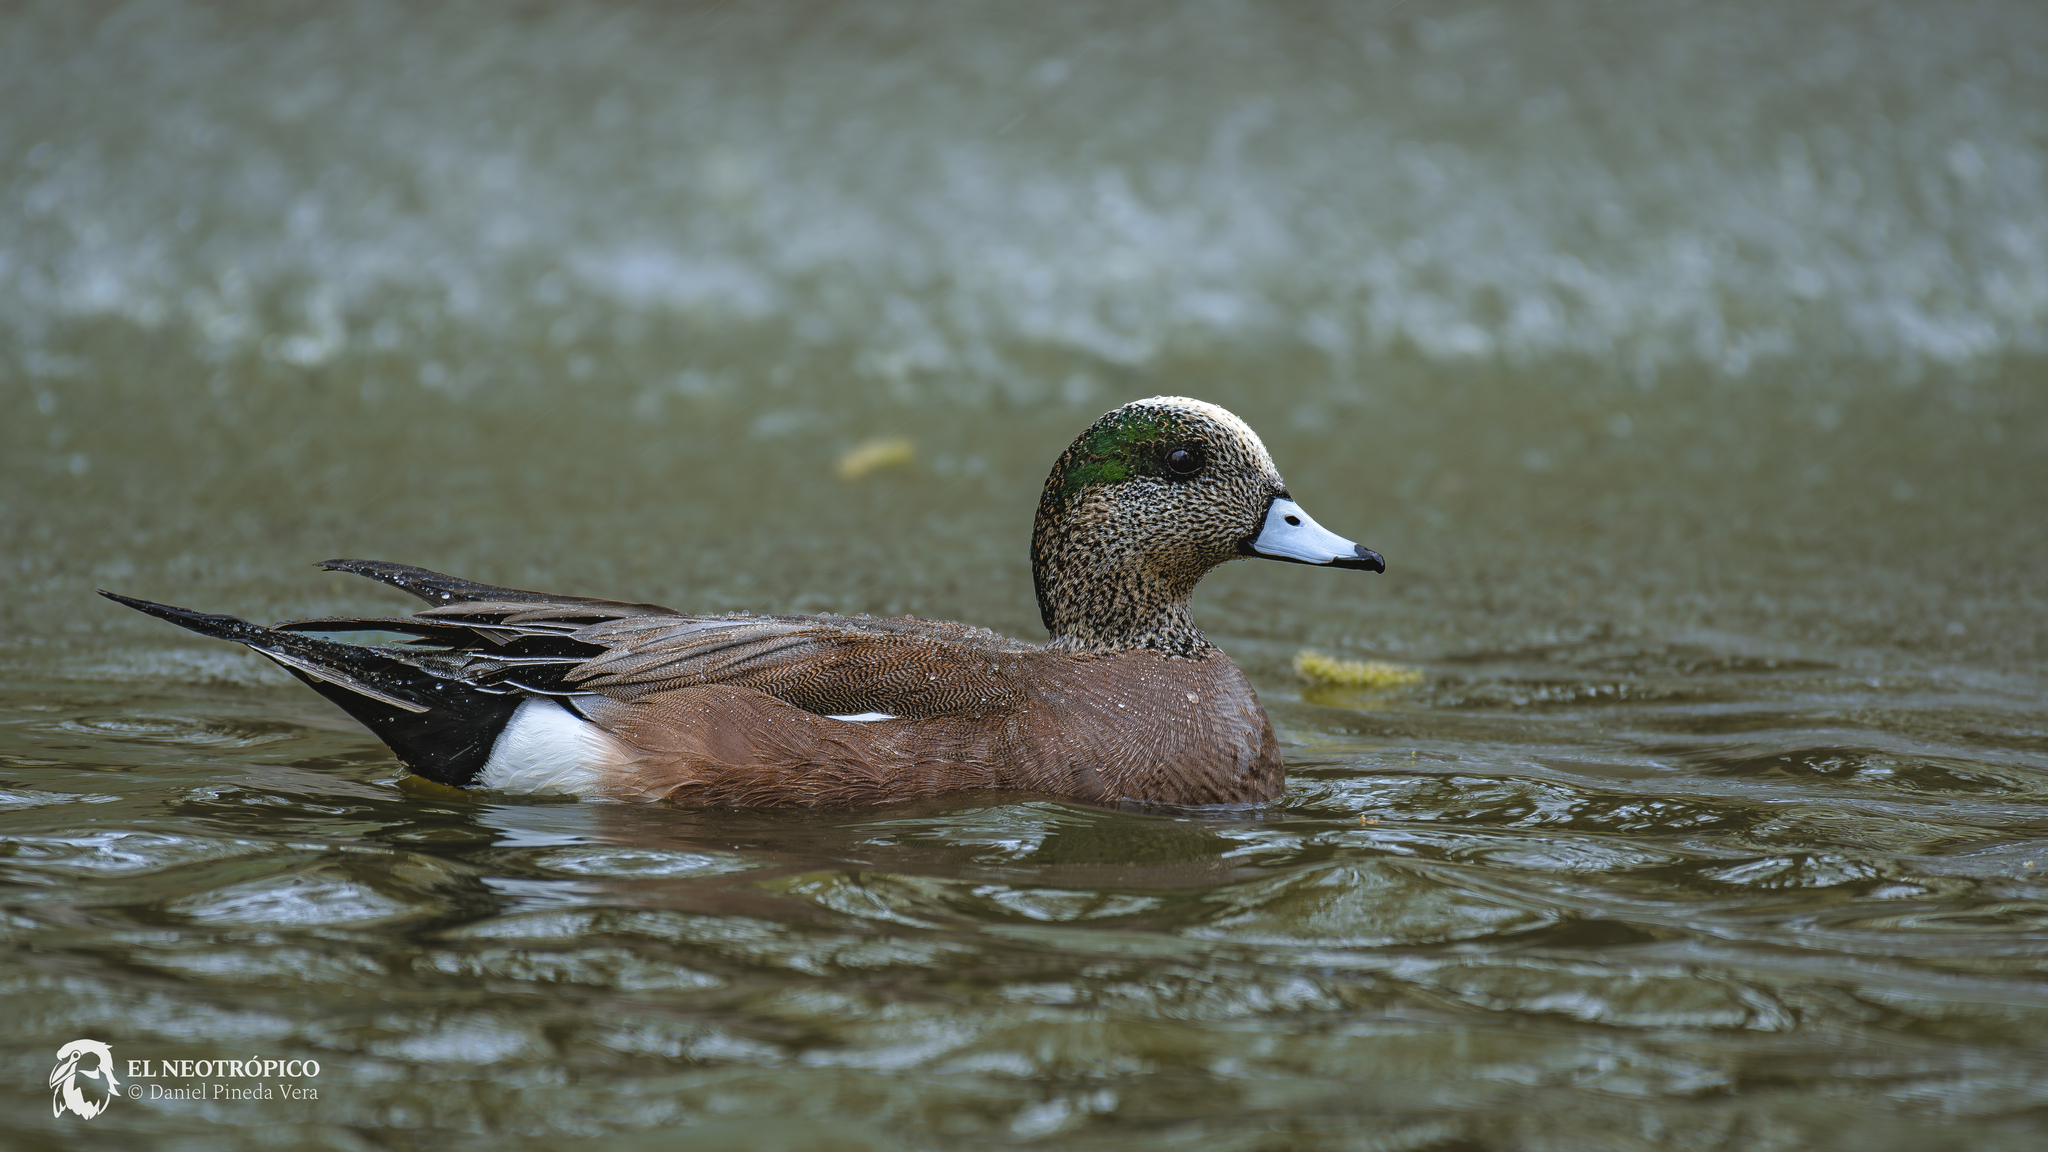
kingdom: Animalia
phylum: Chordata
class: Aves
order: Anseriformes
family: Anatidae
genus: Mareca
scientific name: Mareca americana
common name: American wigeon
